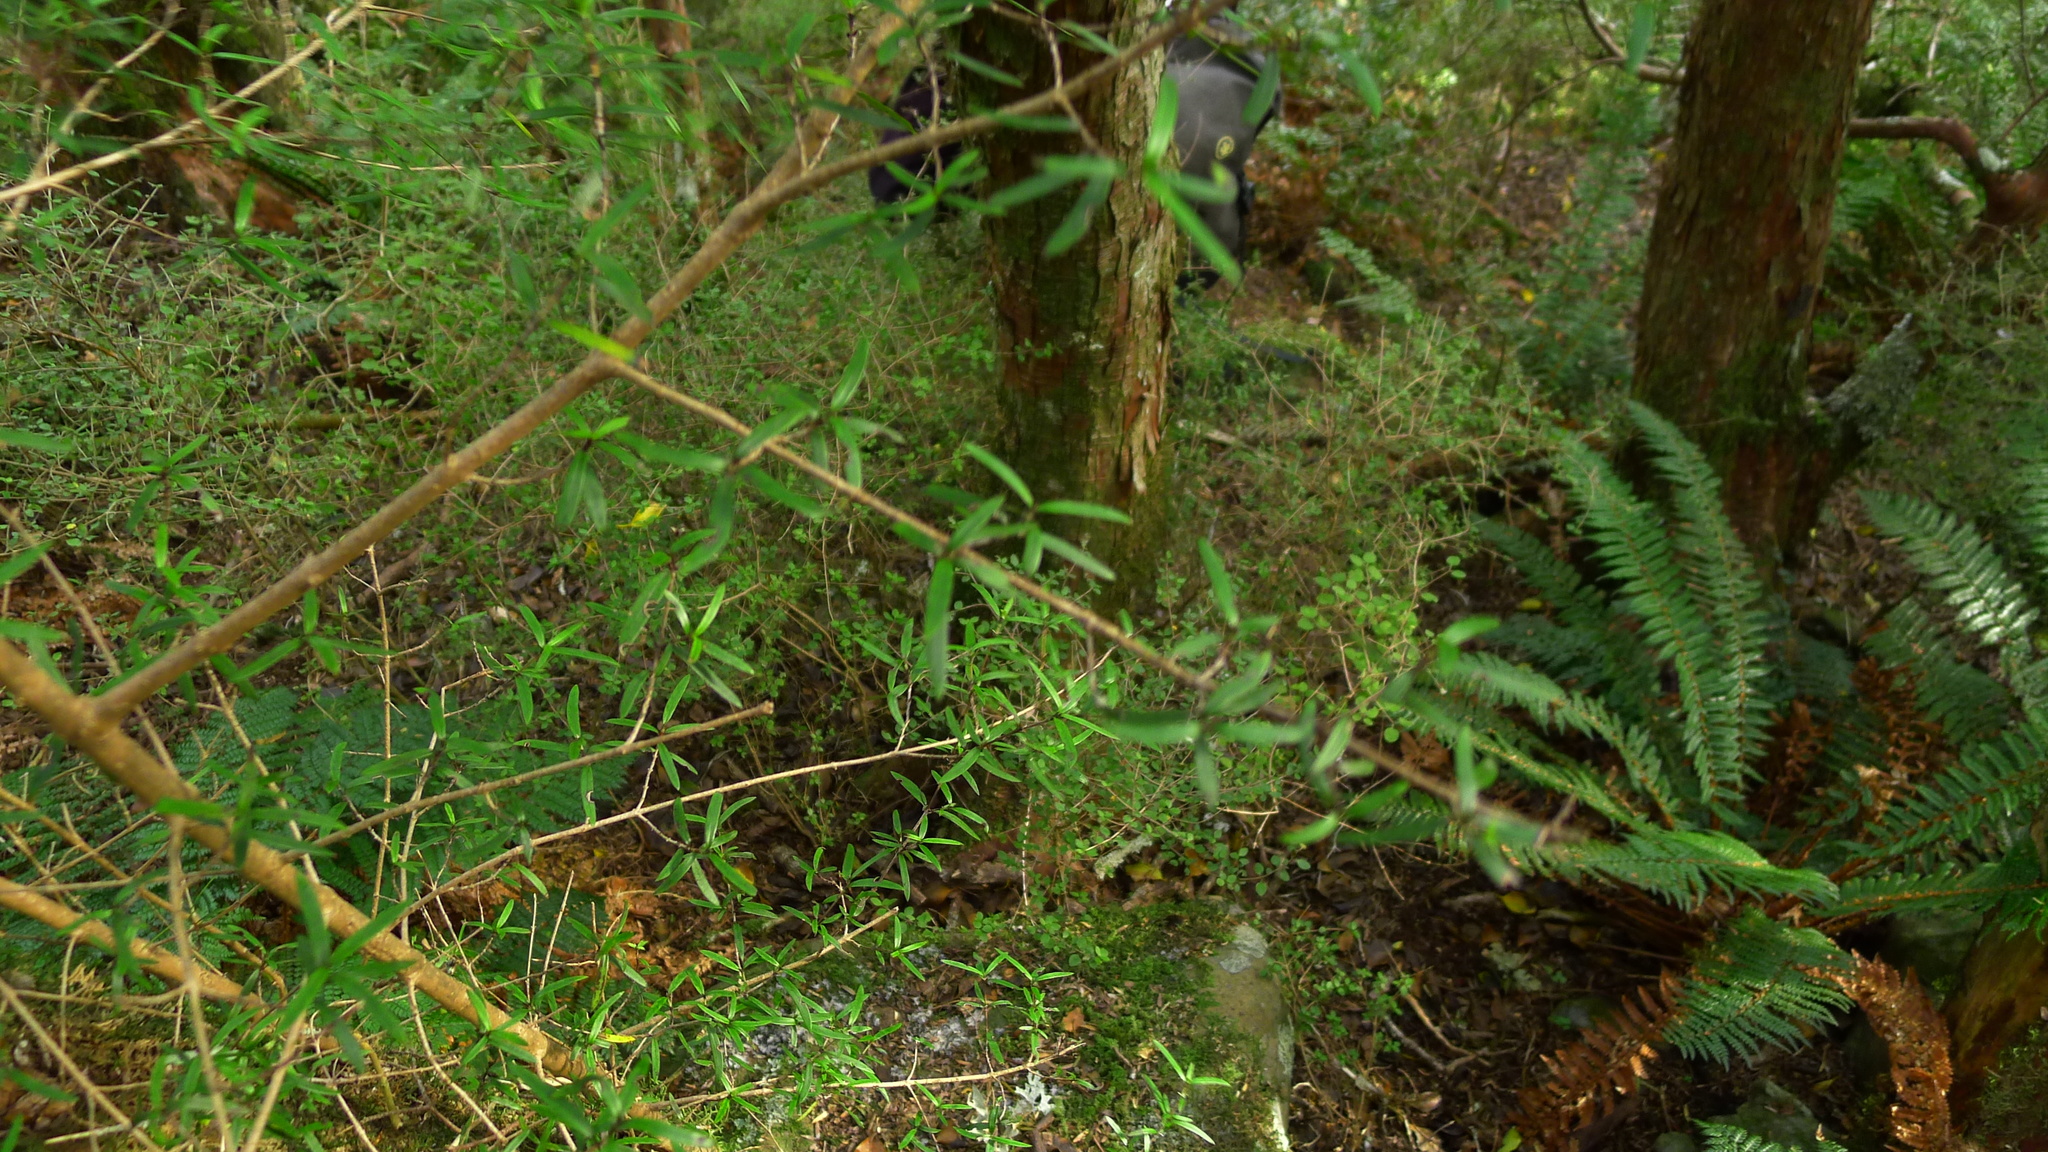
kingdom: Plantae
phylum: Tracheophyta
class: Magnoliopsida
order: Gentianales
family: Rubiaceae
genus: Coprosma
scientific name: Coprosma linariifolia
